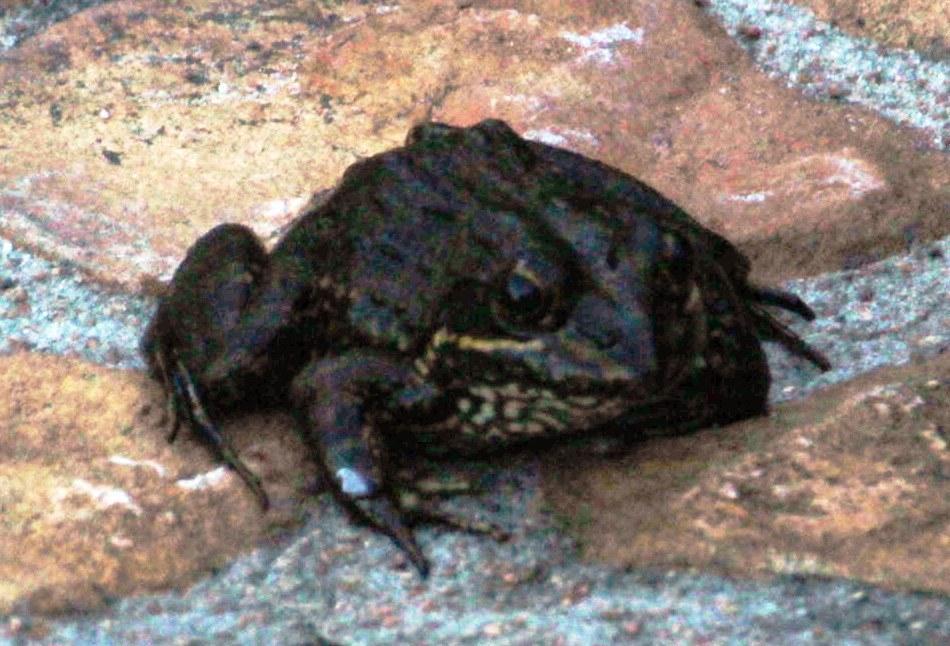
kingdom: Animalia
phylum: Chordata
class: Amphibia
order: Anura
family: Pyxicephalidae
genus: Amietia
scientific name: Amietia fuscigula
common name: Cape rana
